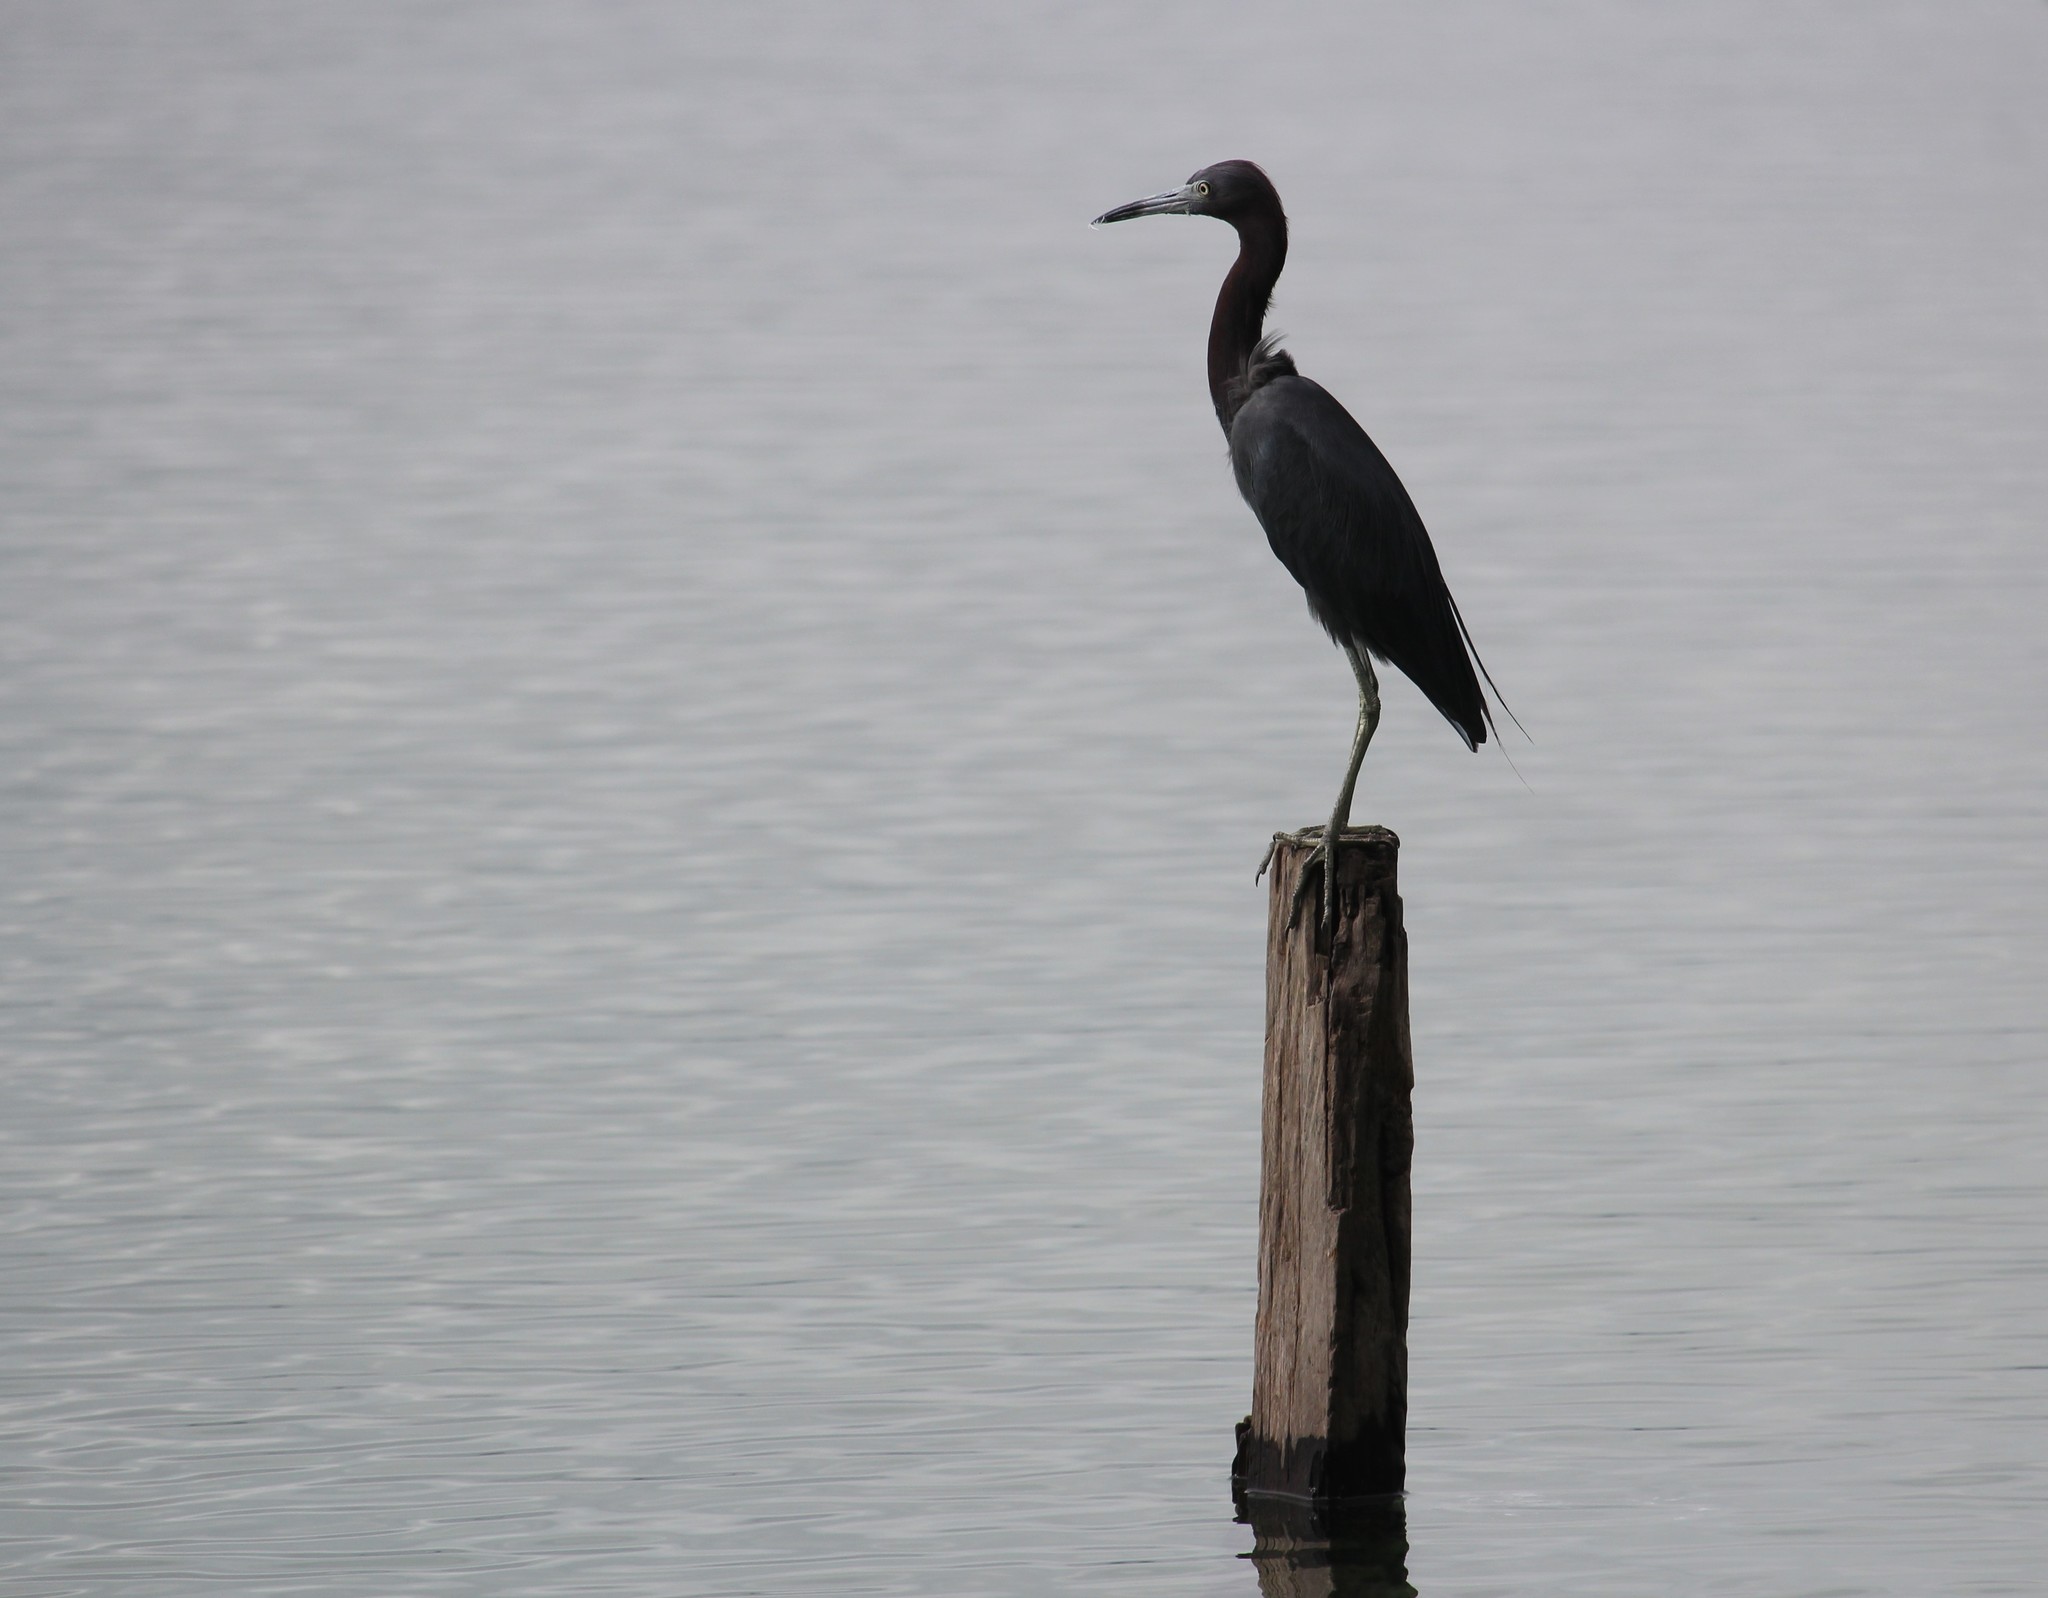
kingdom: Animalia
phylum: Chordata
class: Aves
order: Pelecaniformes
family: Ardeidae
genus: Egretta
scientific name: Egretta caerulea
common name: Little blue heron
